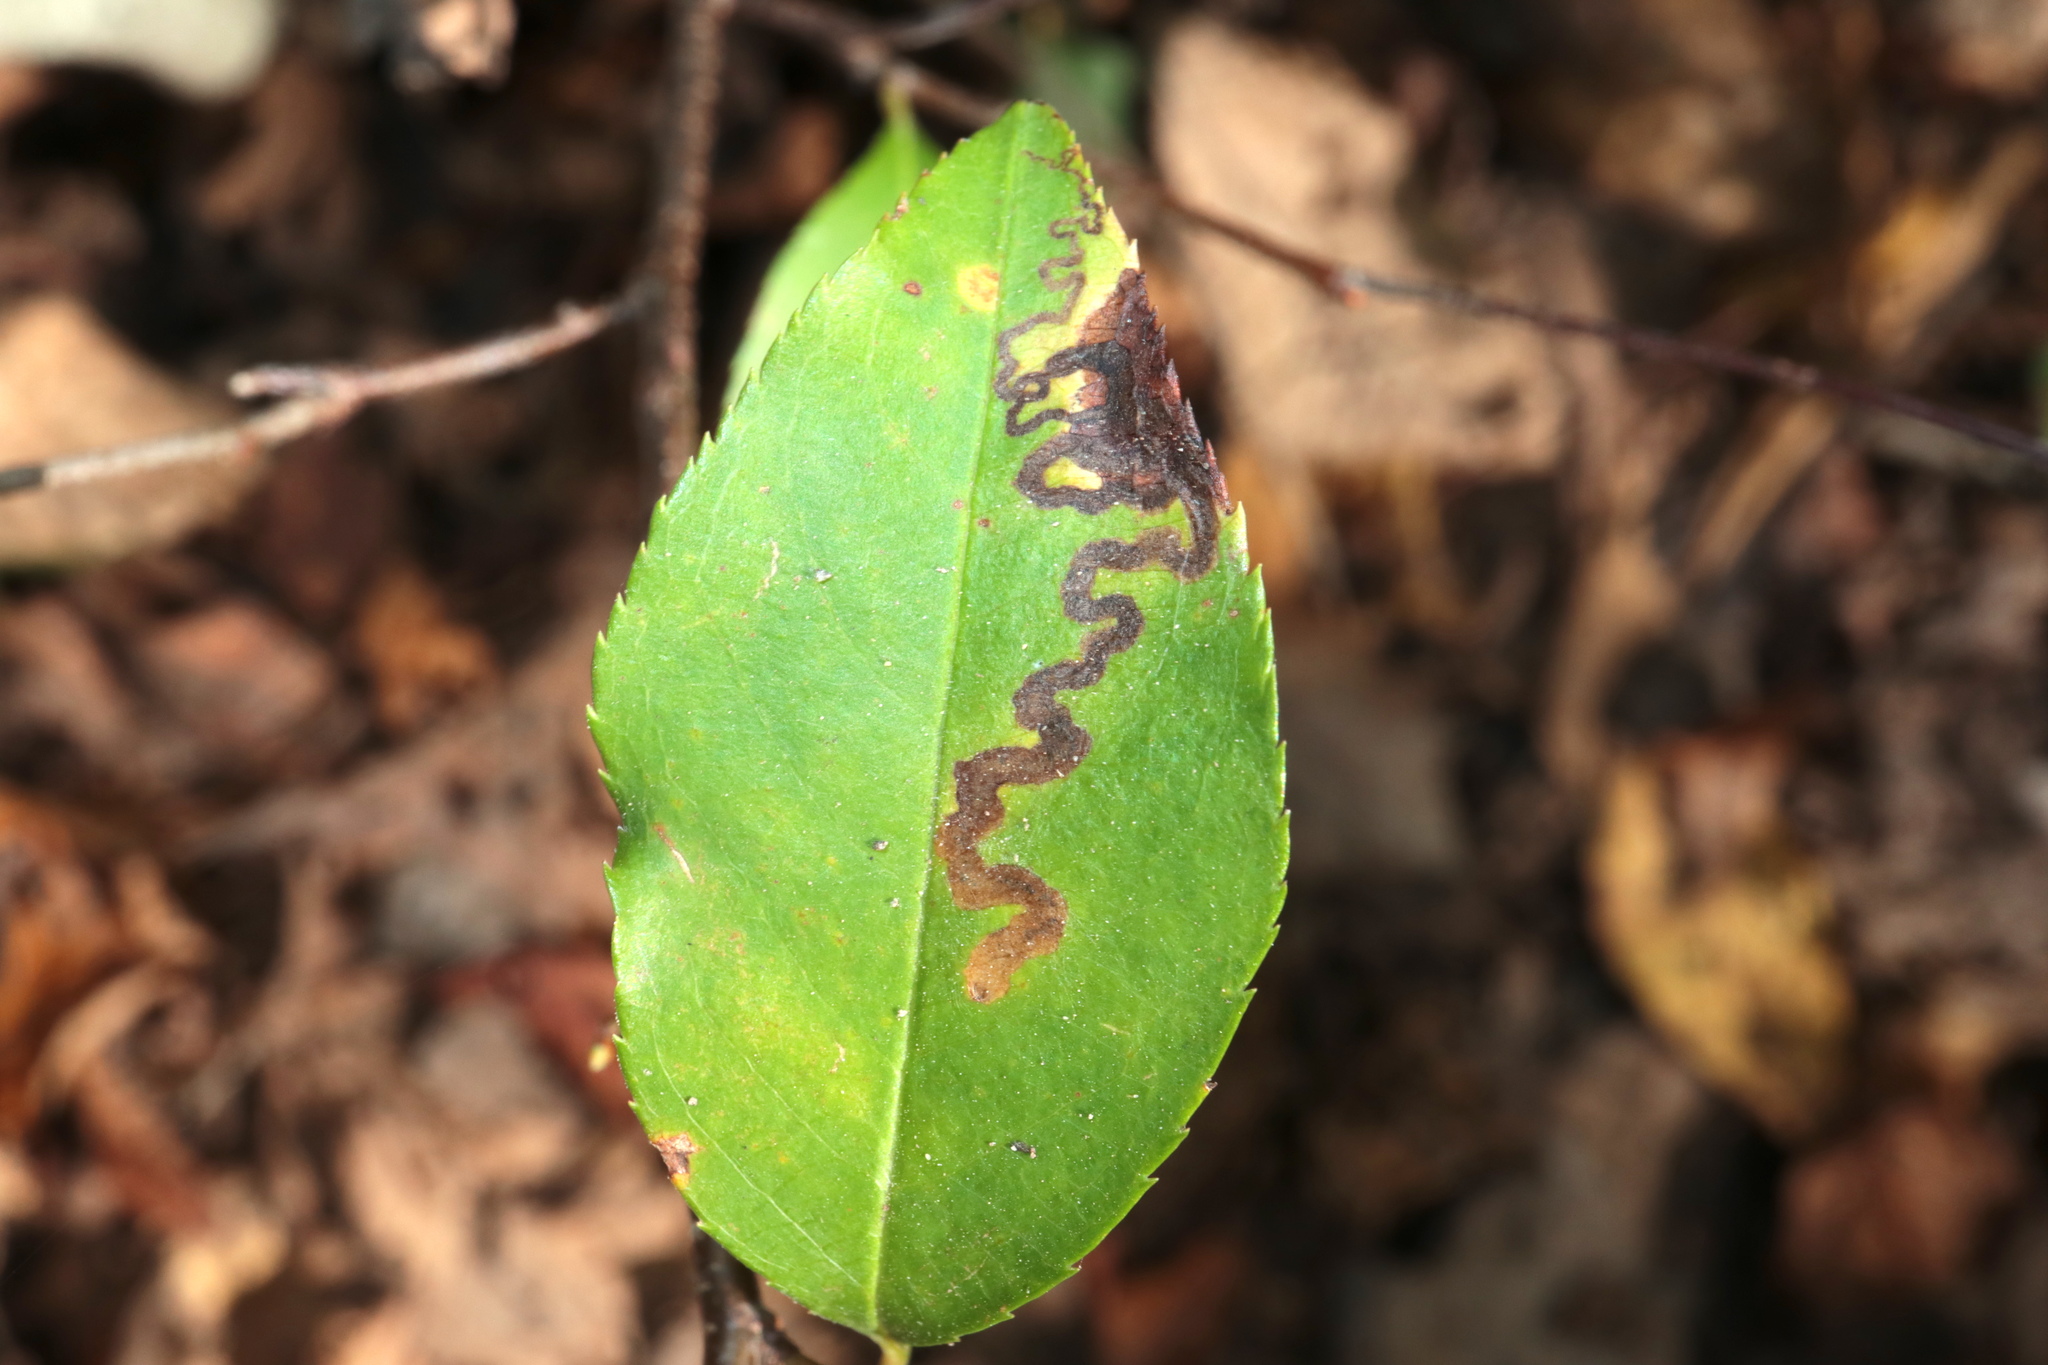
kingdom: Animalia
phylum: Arthropoda
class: Insecta
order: Lepidoptera
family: Nepticulidae
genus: Stigmella
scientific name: Stigmella prunifoliella
